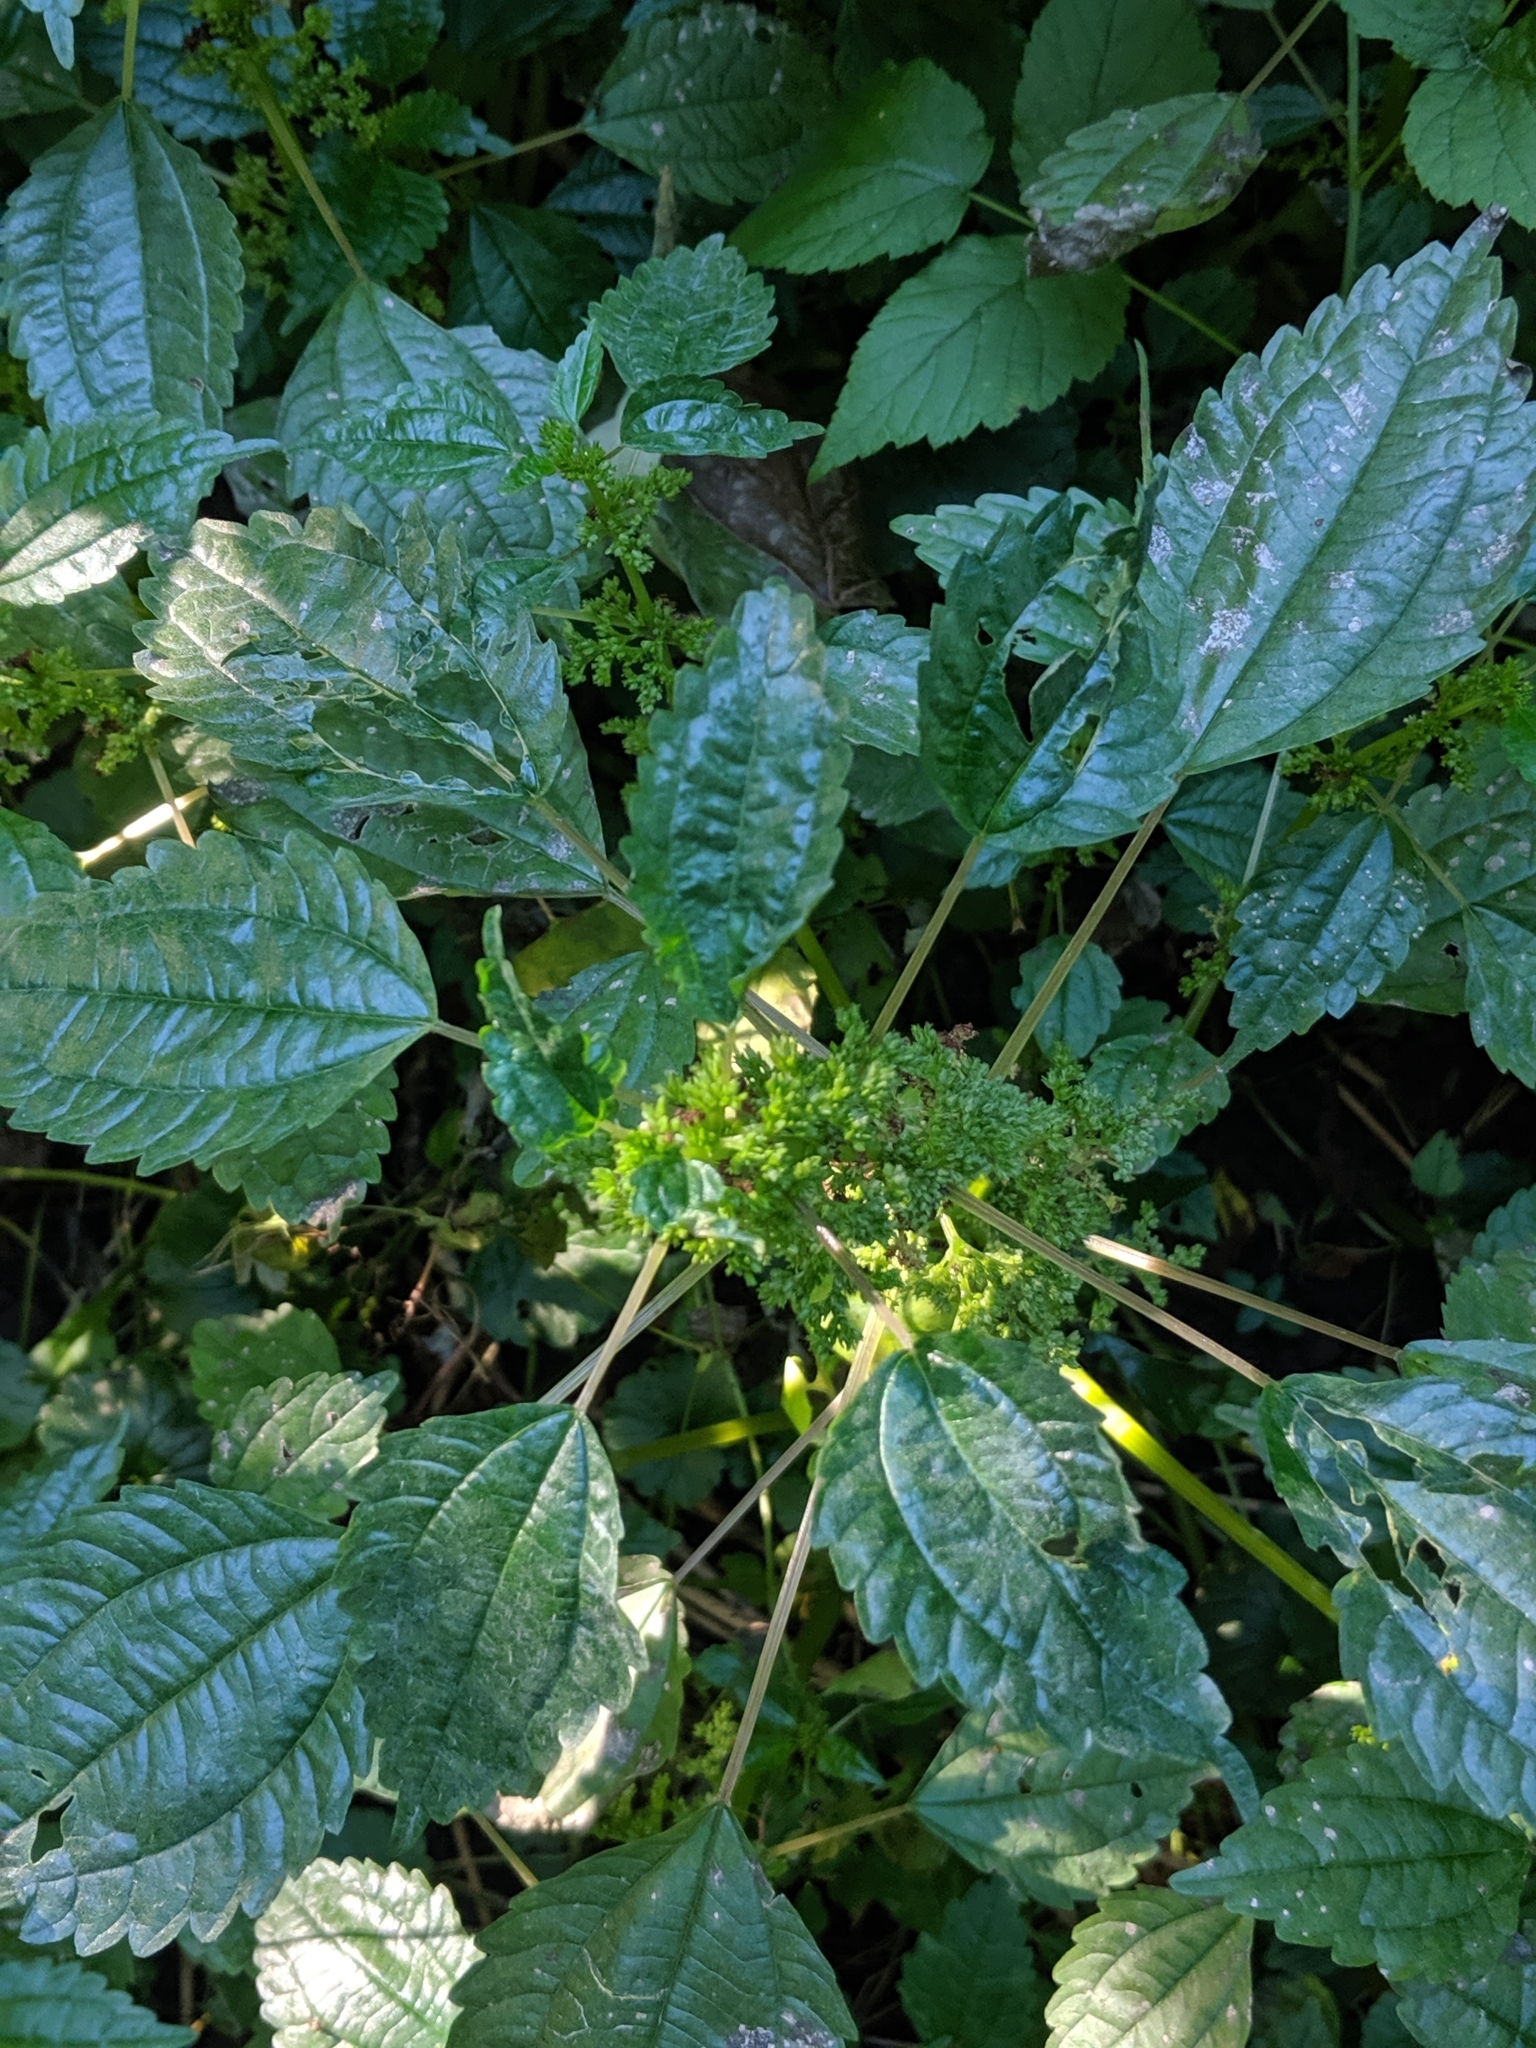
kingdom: Plantae
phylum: Tracheophyta
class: Magnoliopsida
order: Rosales
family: Urticaceae
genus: Pilea
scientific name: Pilea pumila
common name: Clearweed
